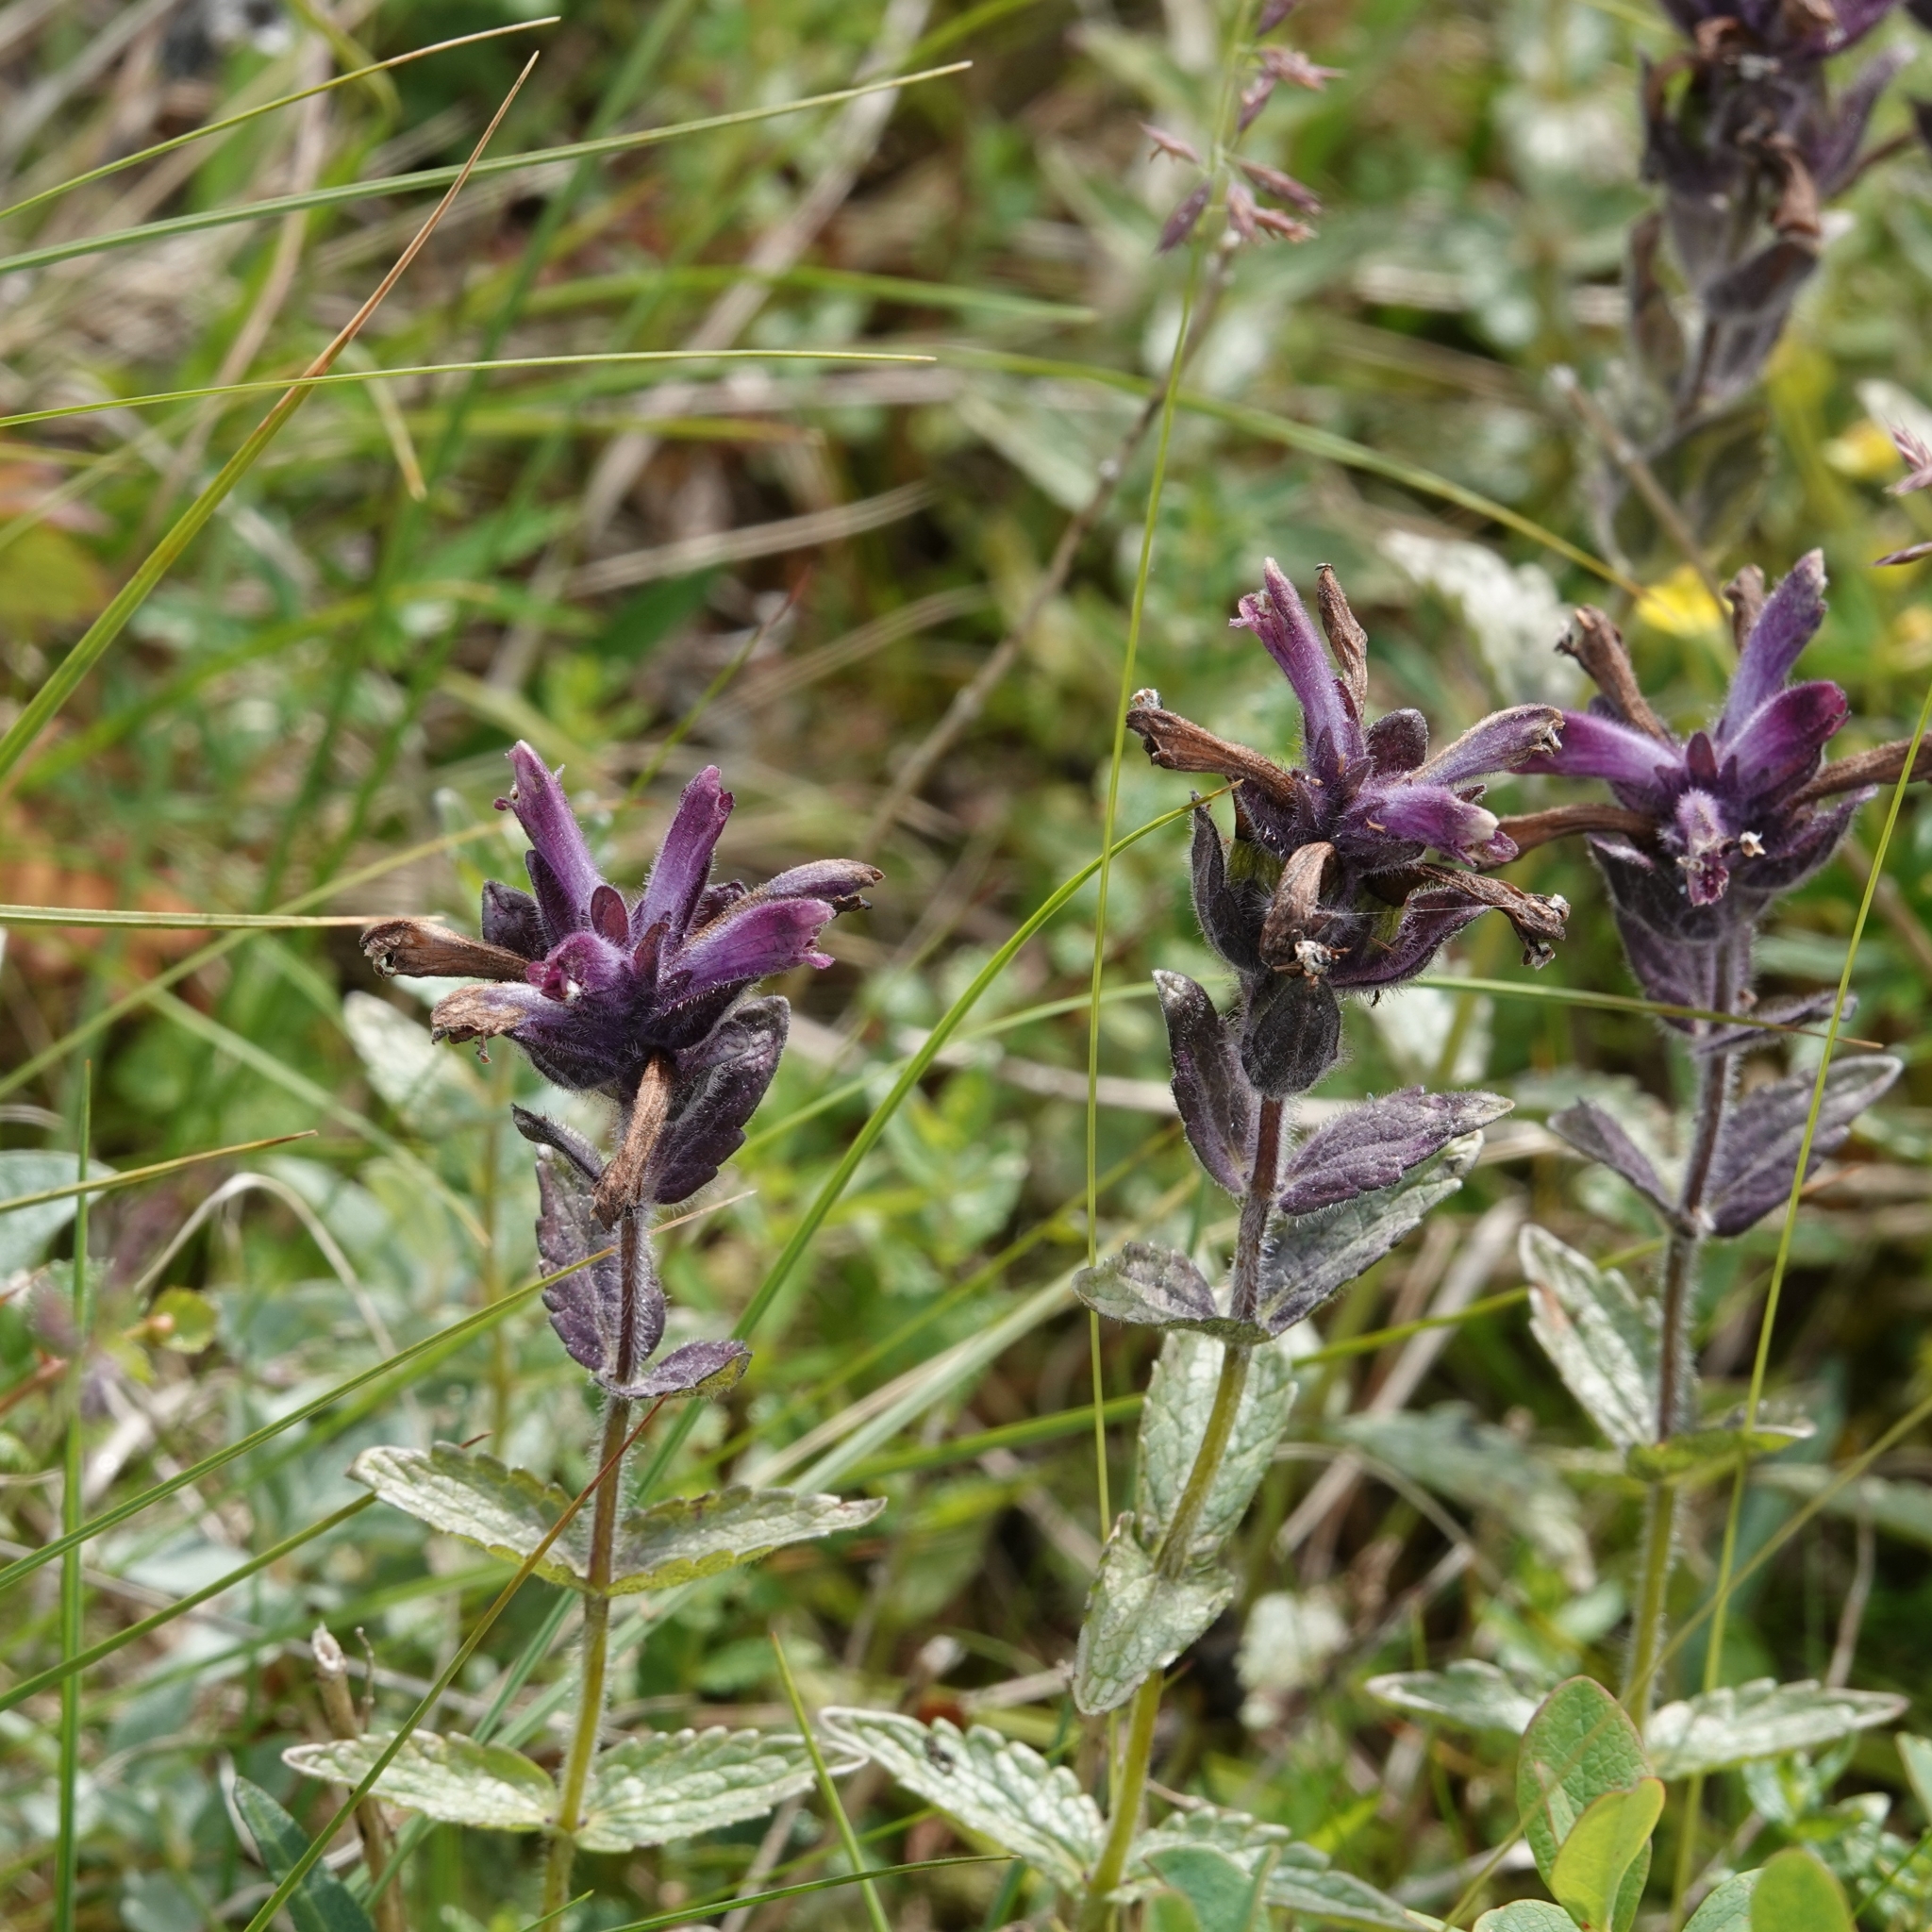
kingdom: Plantae
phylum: Tracheophyta
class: Magnoliopsida
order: Lamiales
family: Orobanchaceae
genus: Bartsia
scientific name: Bartsia alpina
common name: Alpine bartsia
